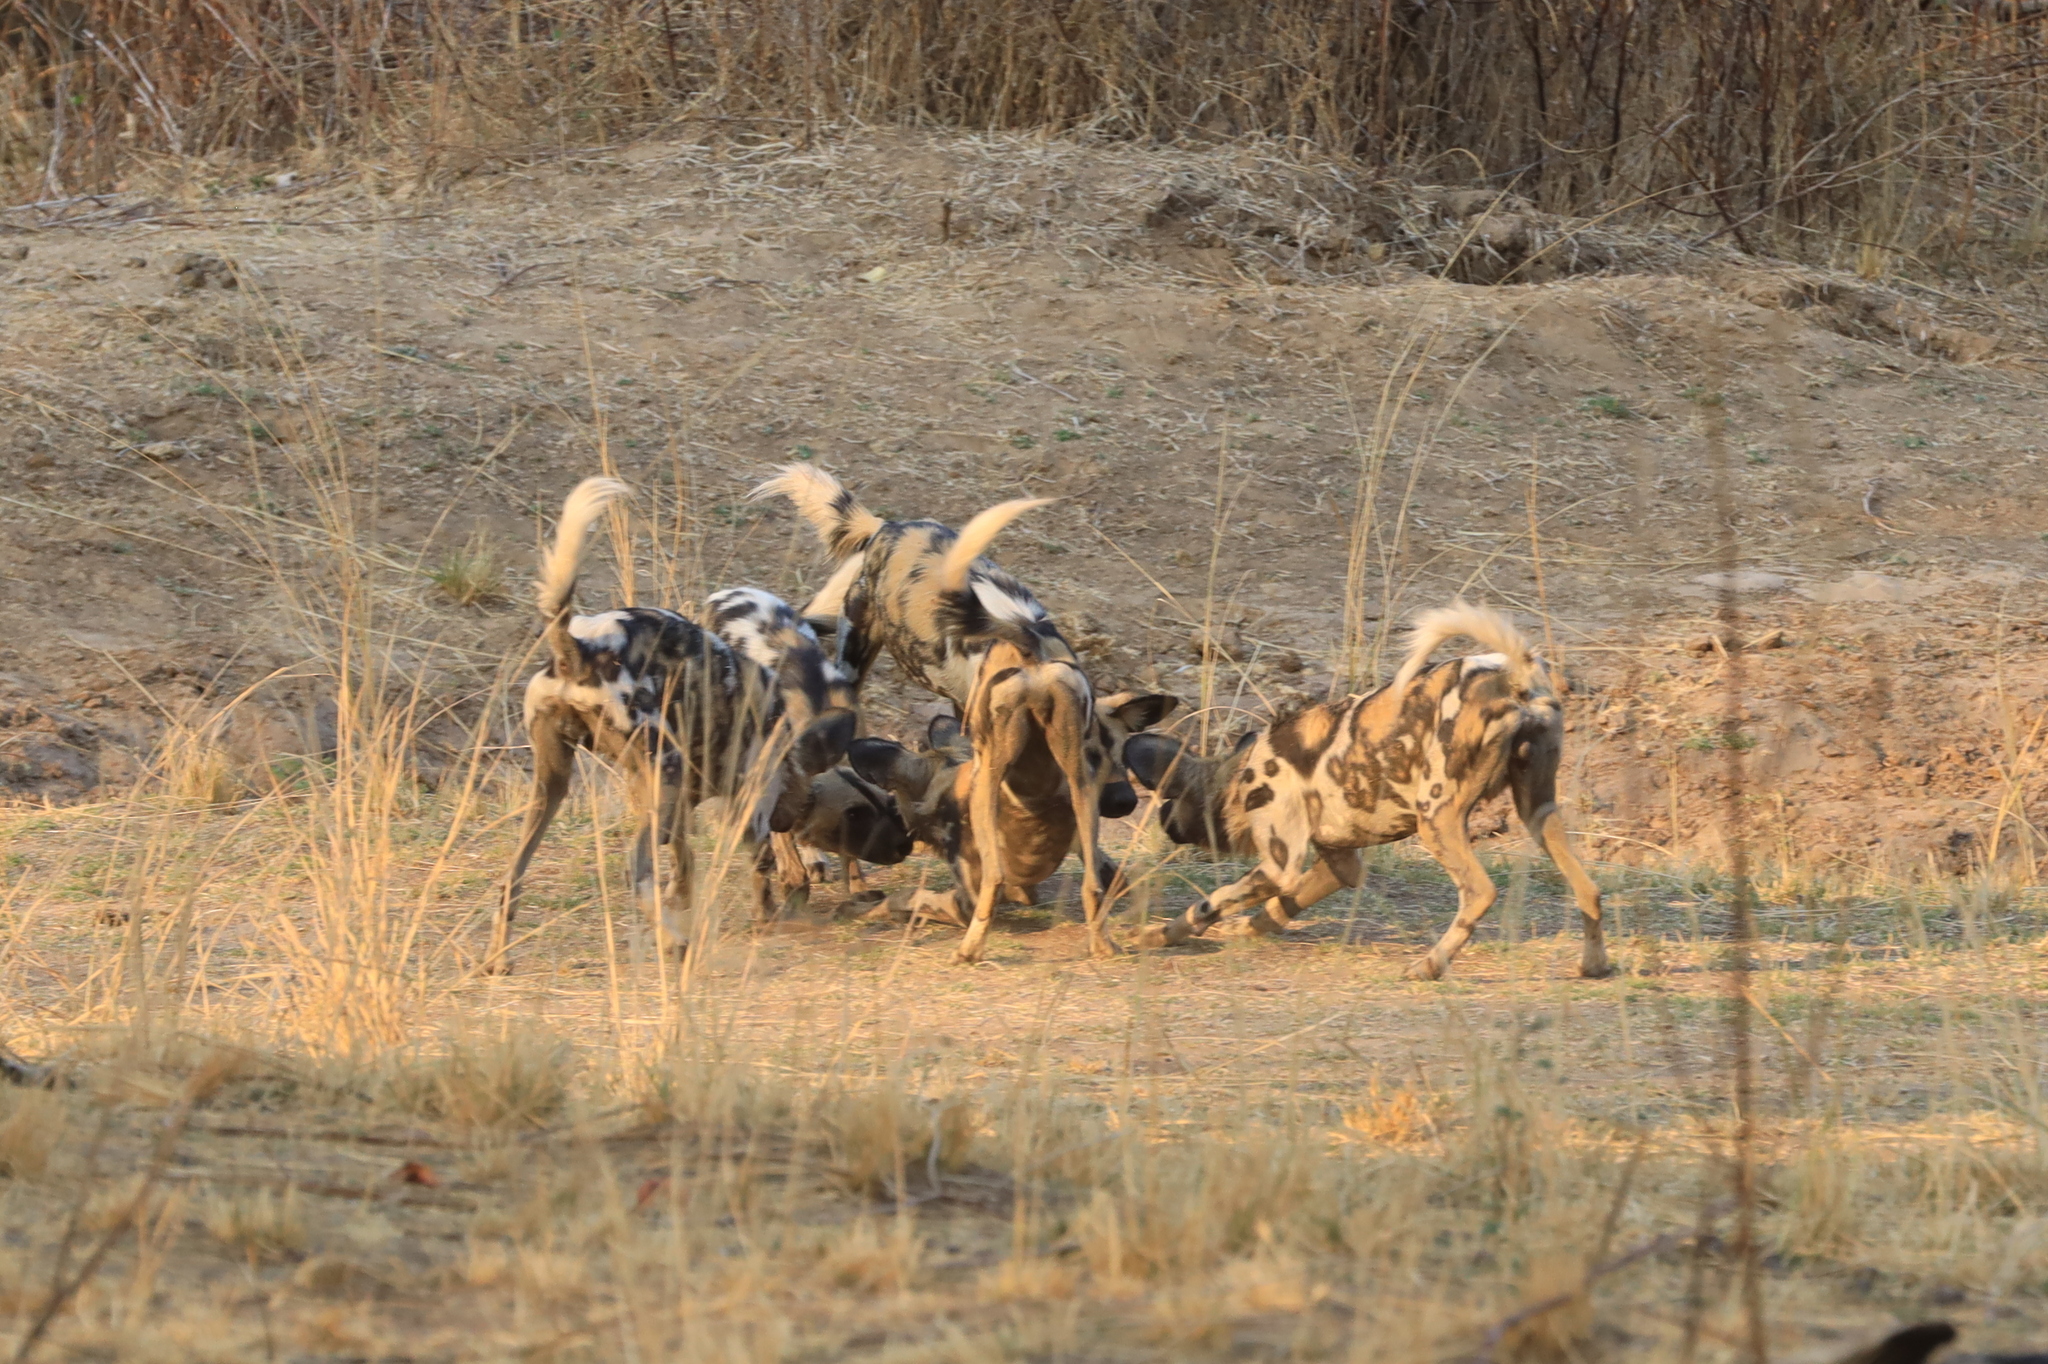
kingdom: Animalia
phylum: Chordata
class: Mammalia
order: Carnivora
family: Canidae
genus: Lycaon
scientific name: Lycaon pictus
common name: African wild dog
